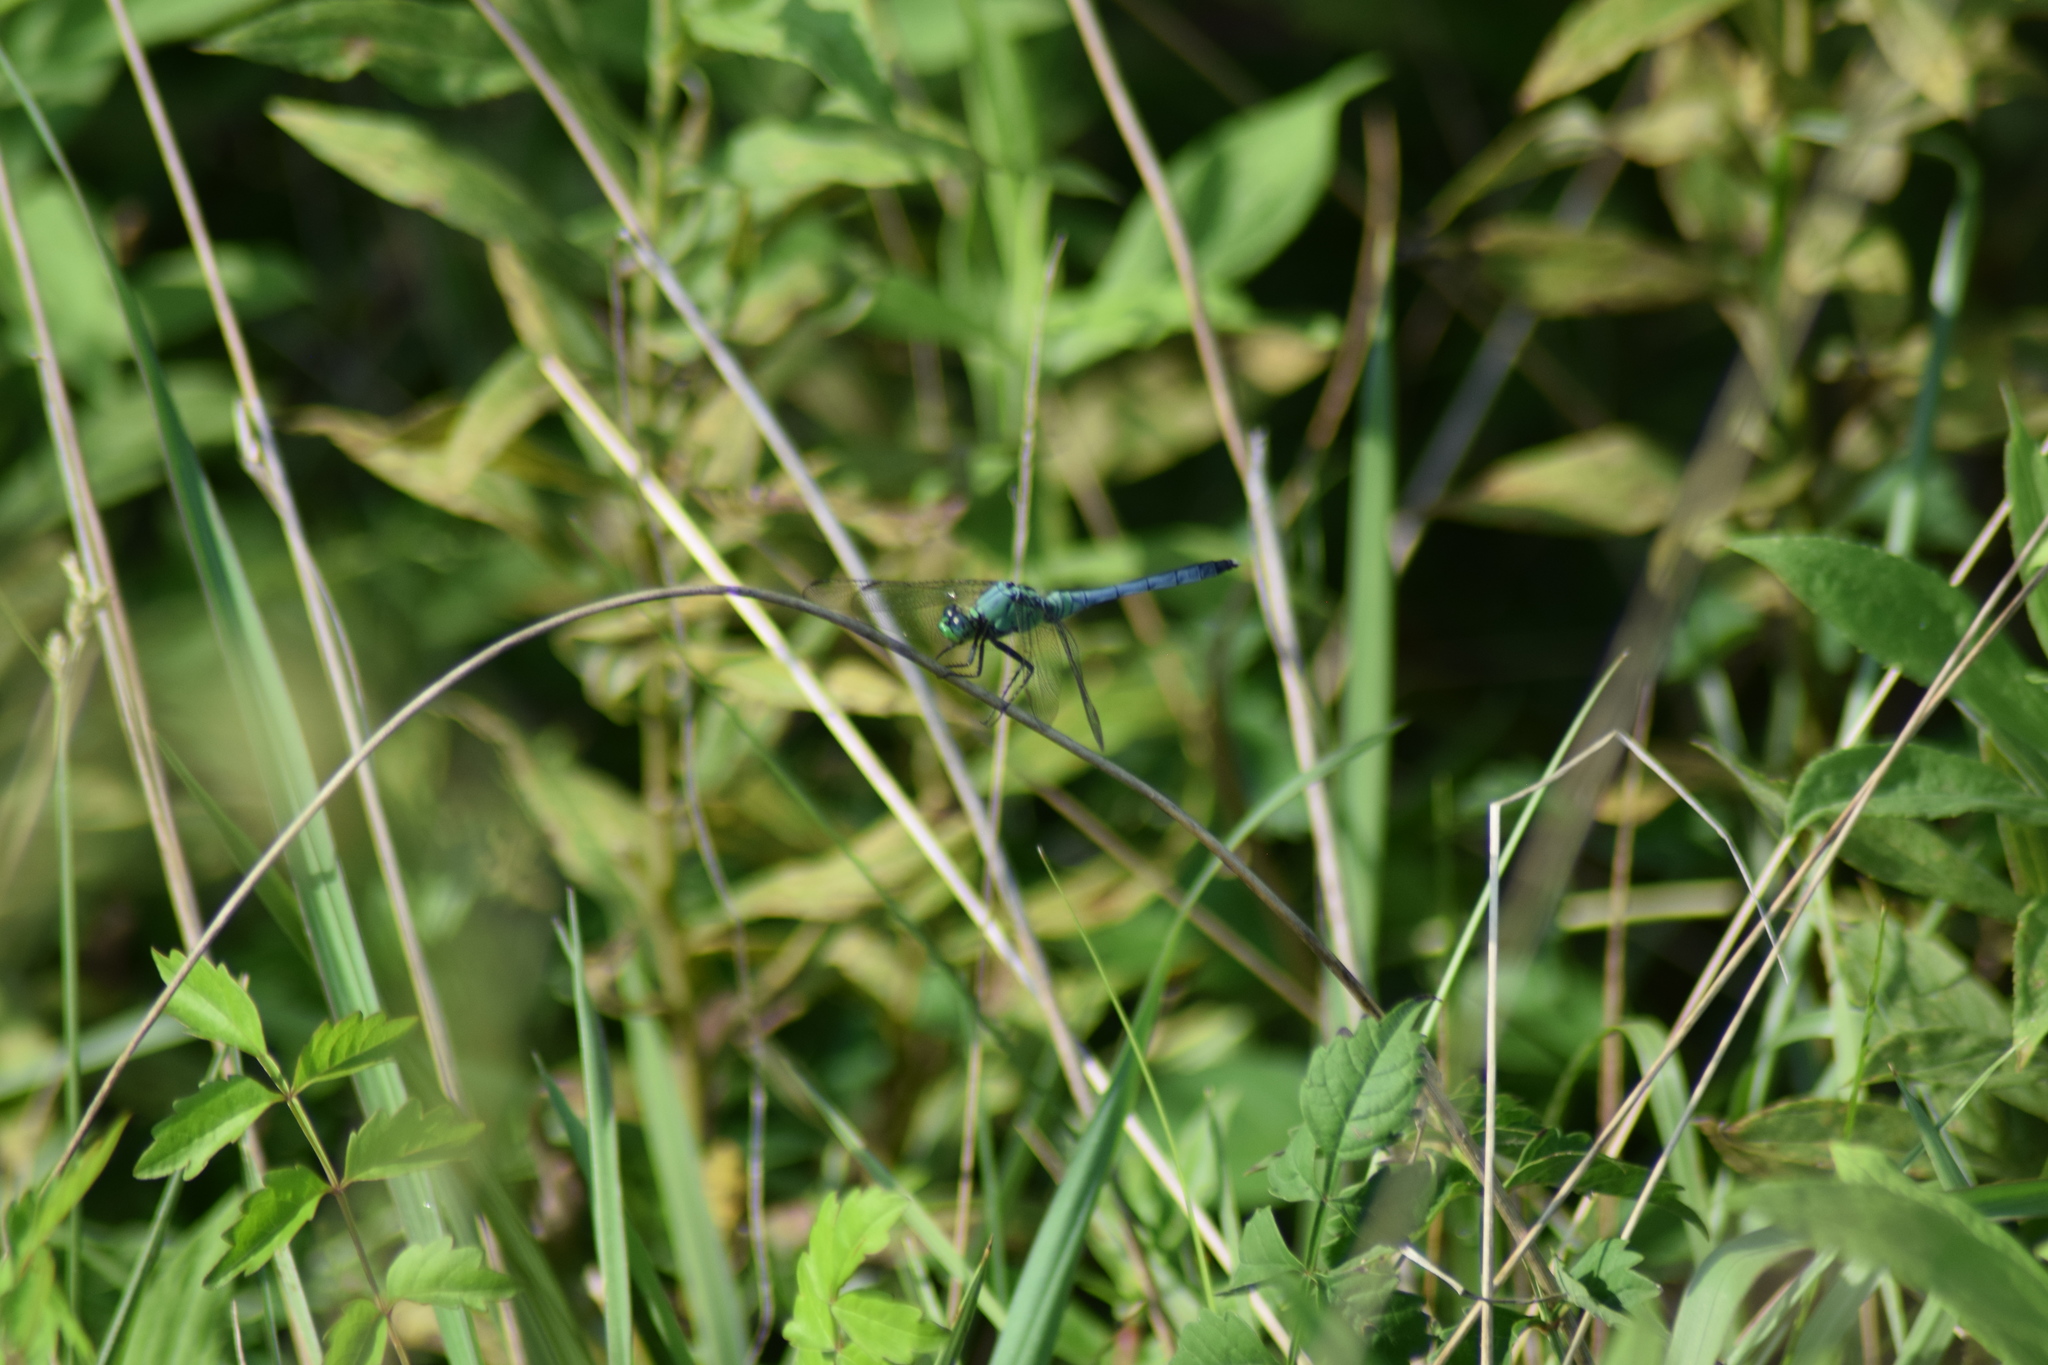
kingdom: Animalia
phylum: Arthropoda
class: Insecta
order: Odonata
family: Libellulidae
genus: Erythemis
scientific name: Erythemis simplicicollis
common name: Eastern pondhawk
